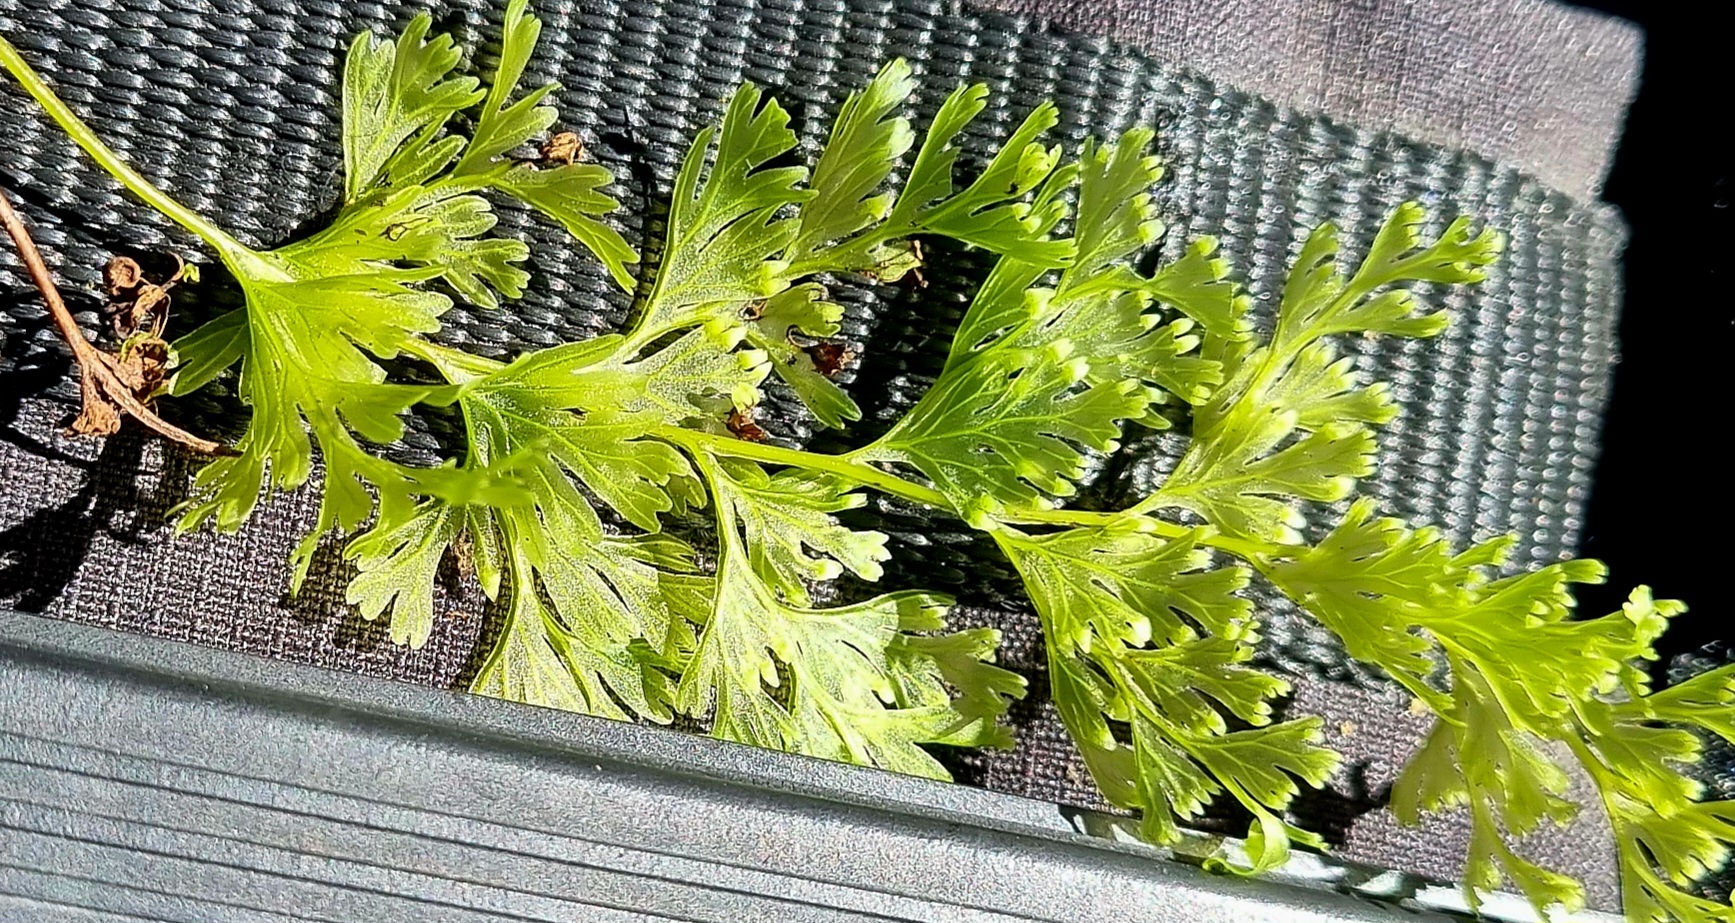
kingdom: Plantae
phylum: Tracheophyta
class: Polypodiopsida
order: Hymenophyllales
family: Hymenophyllaceae
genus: Hymenophyllum
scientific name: Hymenophyllum demissum
